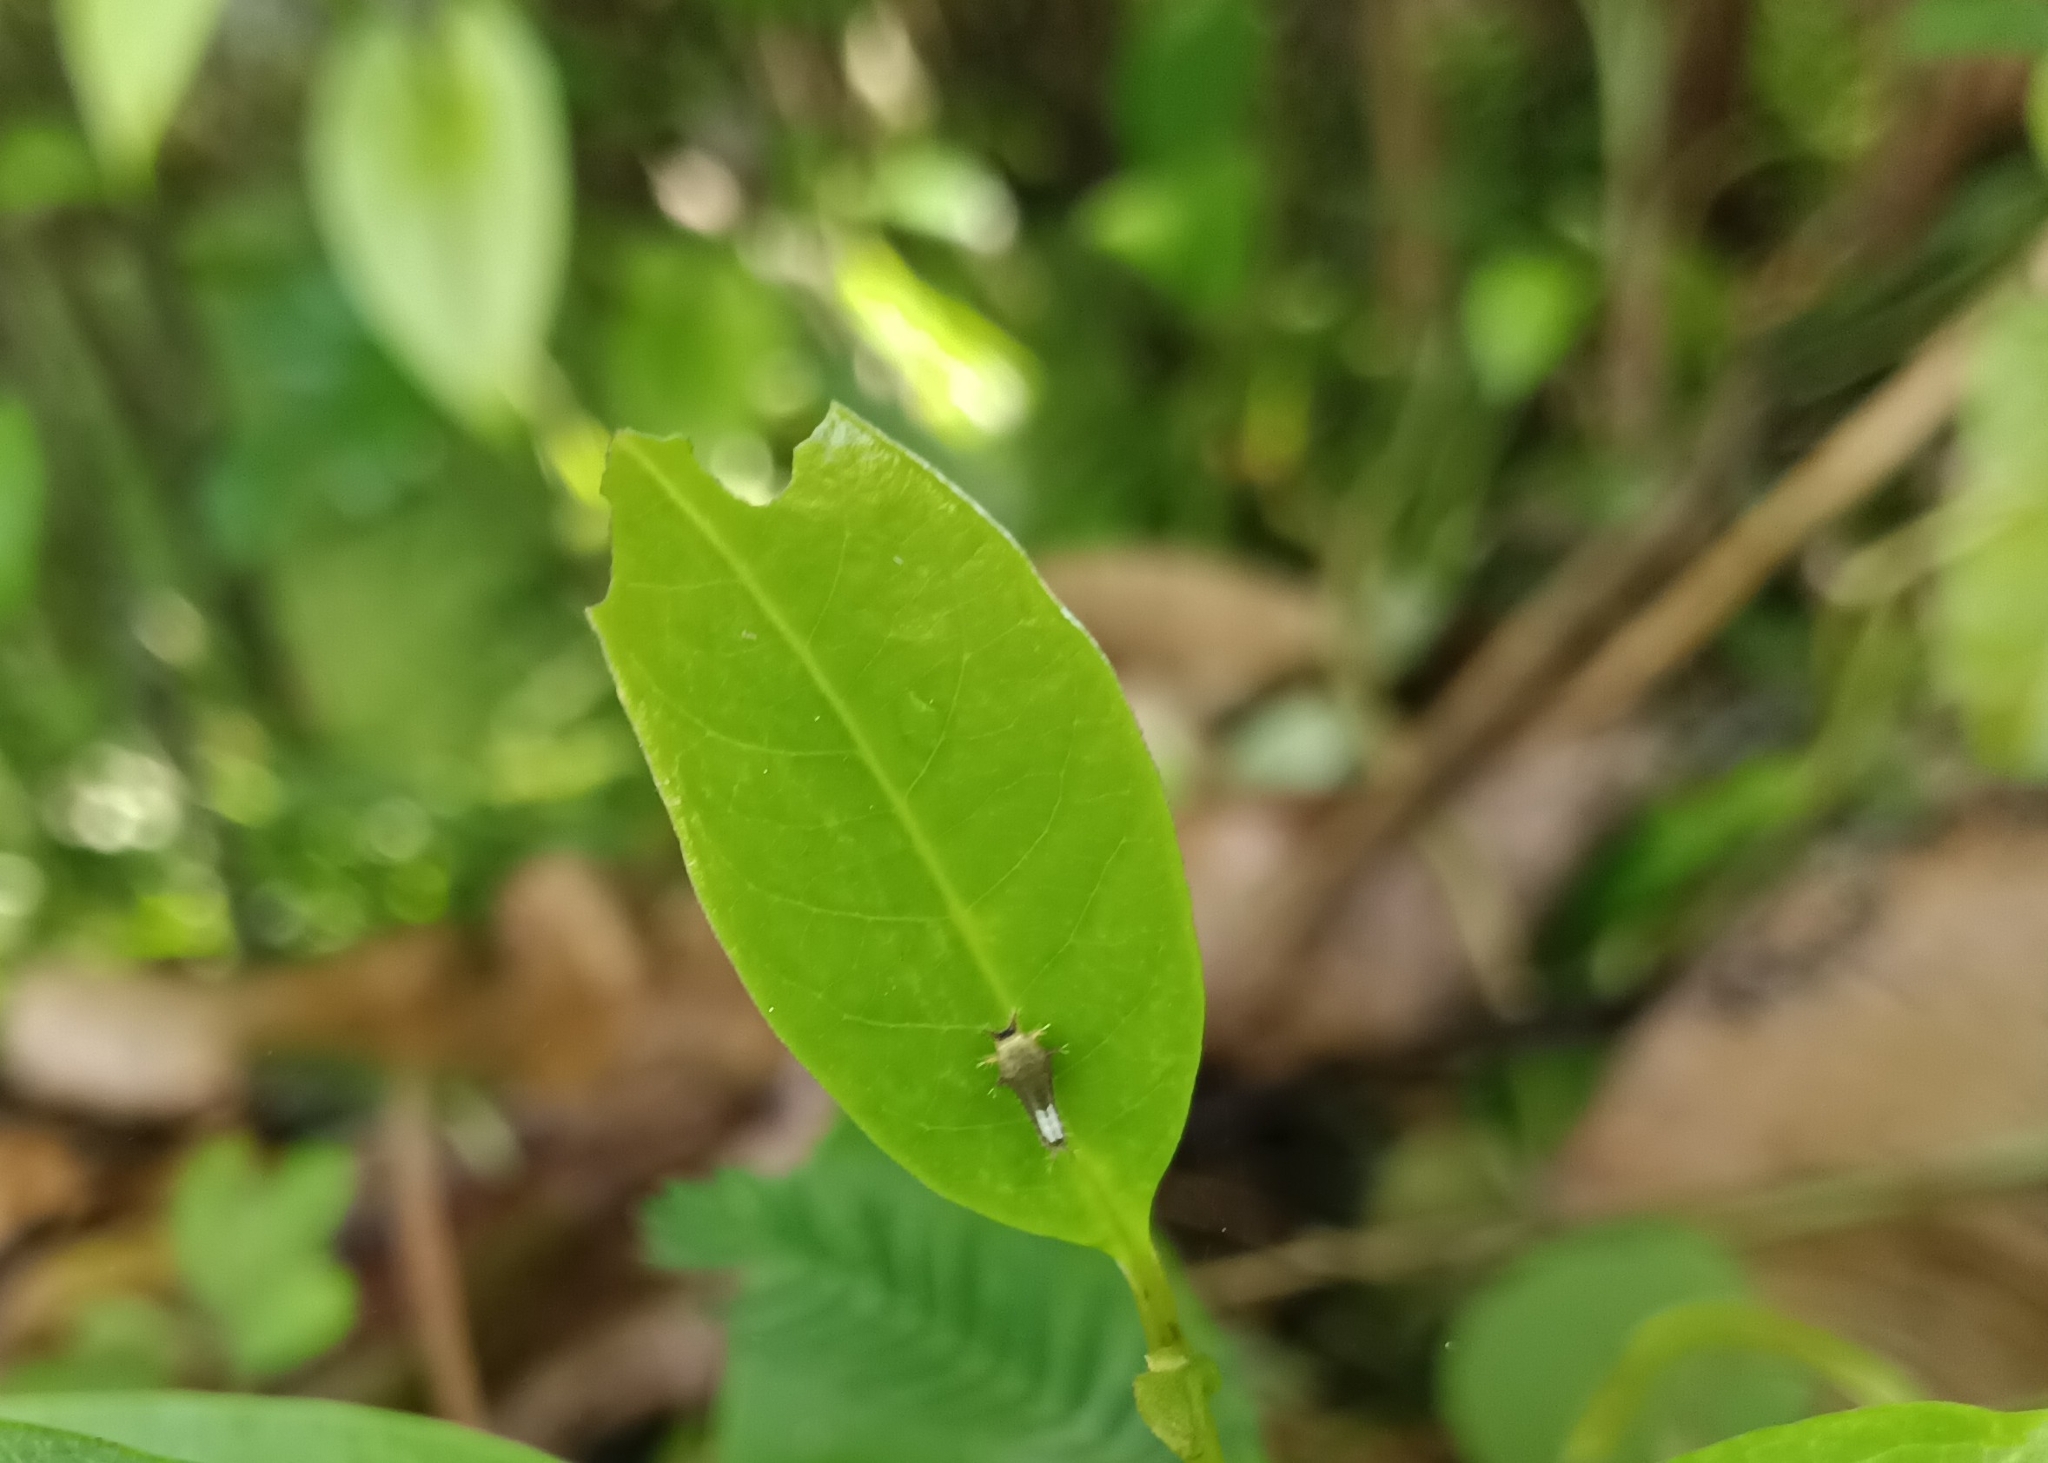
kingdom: Animalia
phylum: Arthropoda
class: Insecta
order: Lepidoptera
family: Papilionidae
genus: Graphium
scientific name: Graphium agamemnon
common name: Tailed jay
